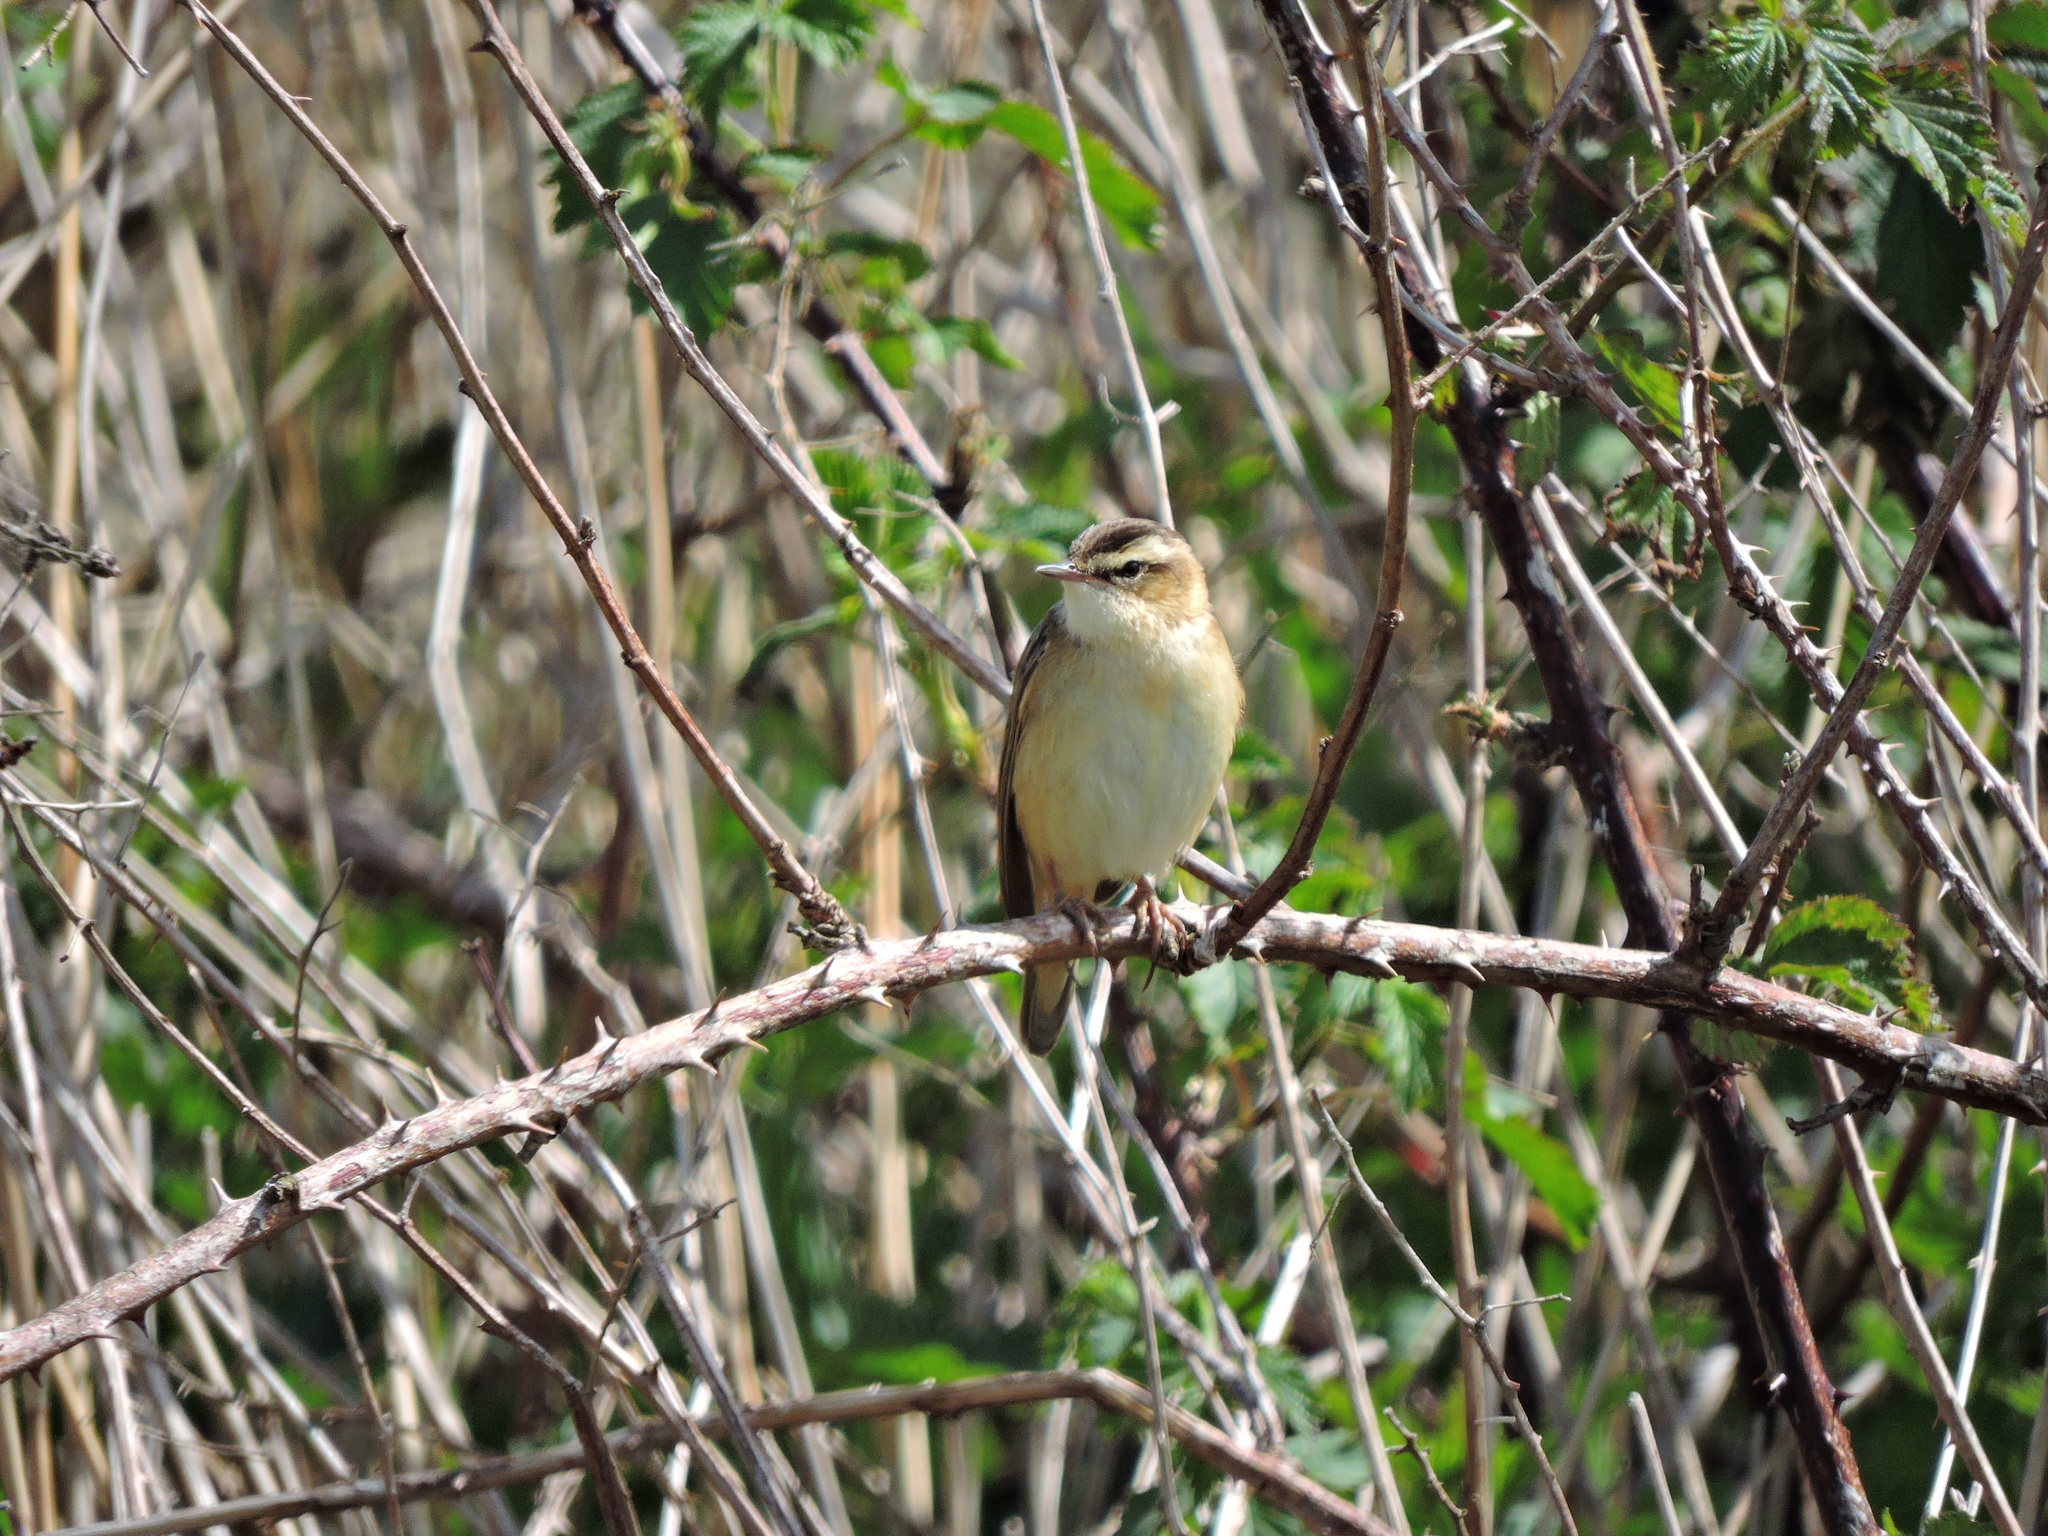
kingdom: Animalia
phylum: Chordata
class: Aves
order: Passeriformes
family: Acrocephalidae
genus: Acrocephalus
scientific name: Acrocephalus schoenobaenus
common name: Sedge warbler
